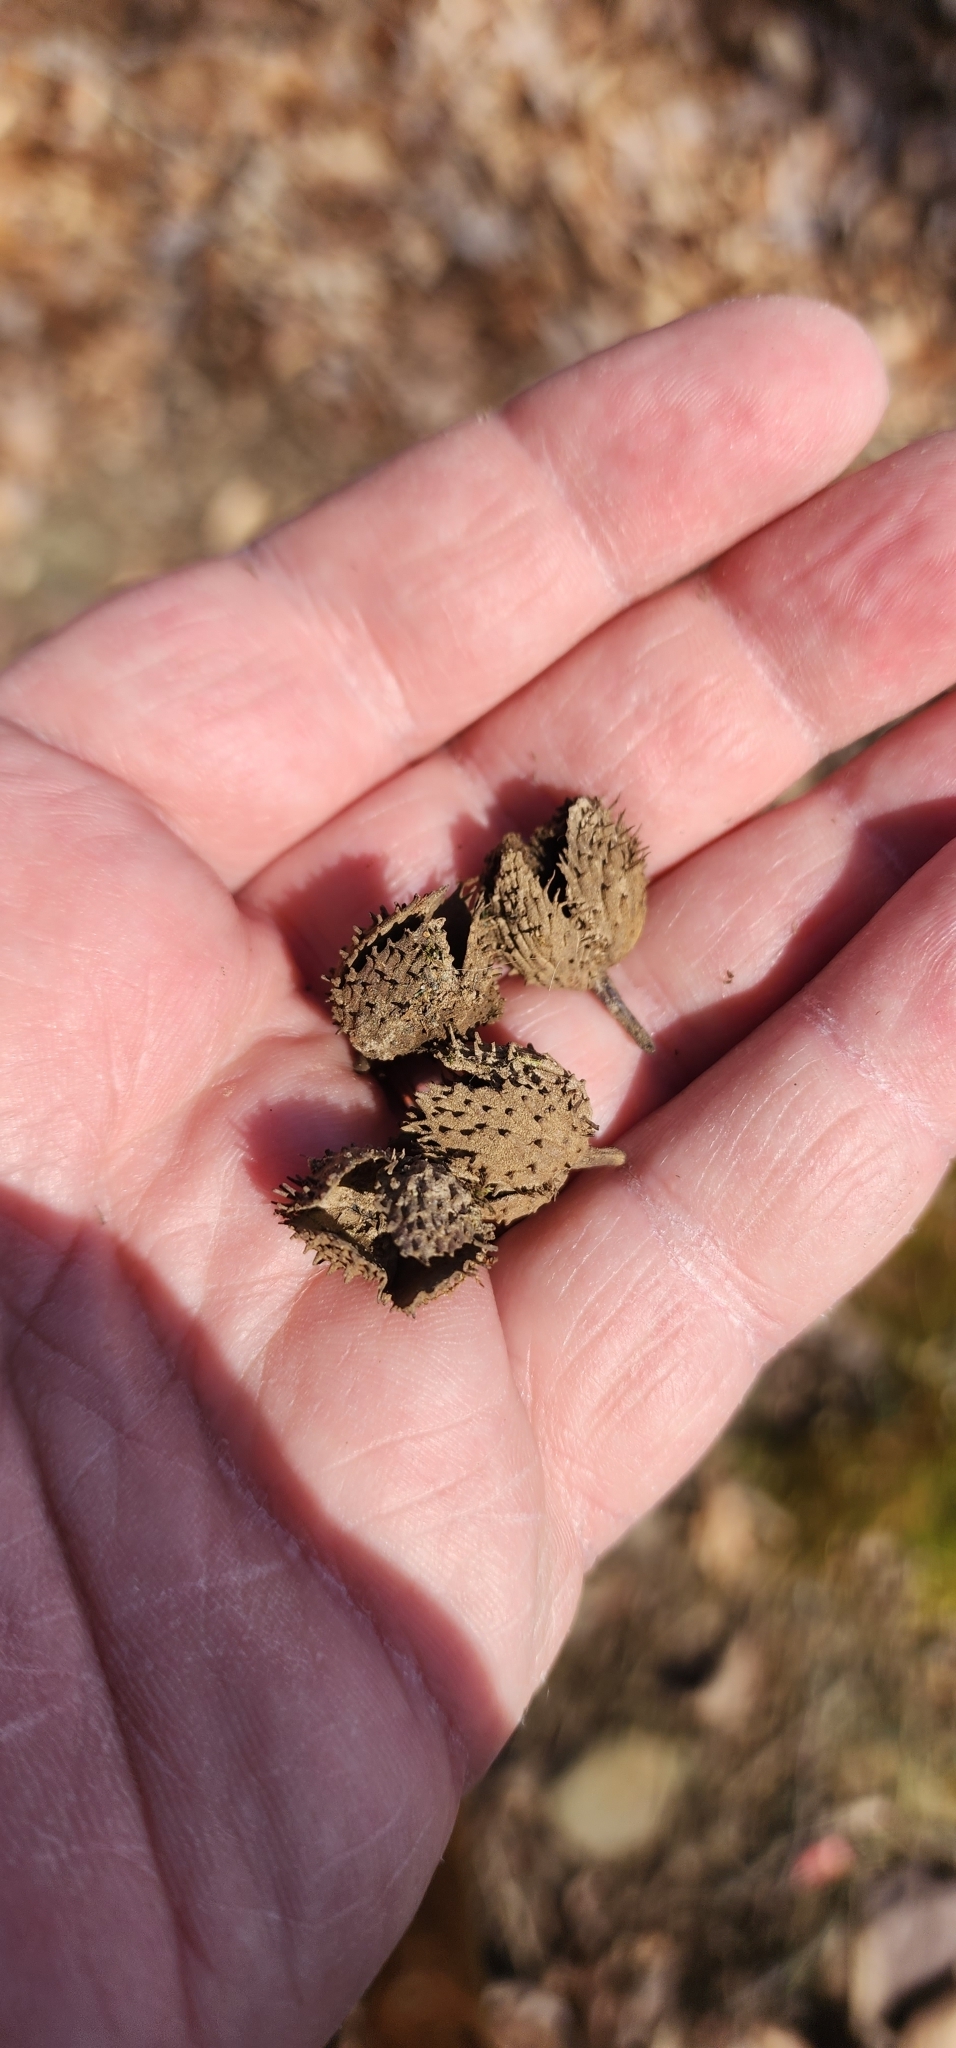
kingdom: Plantae
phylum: Tracheophyta
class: Magnoliopsida
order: Fagales
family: Fagaceae
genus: Fagus
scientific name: Fagus grandifolia
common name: American beech
